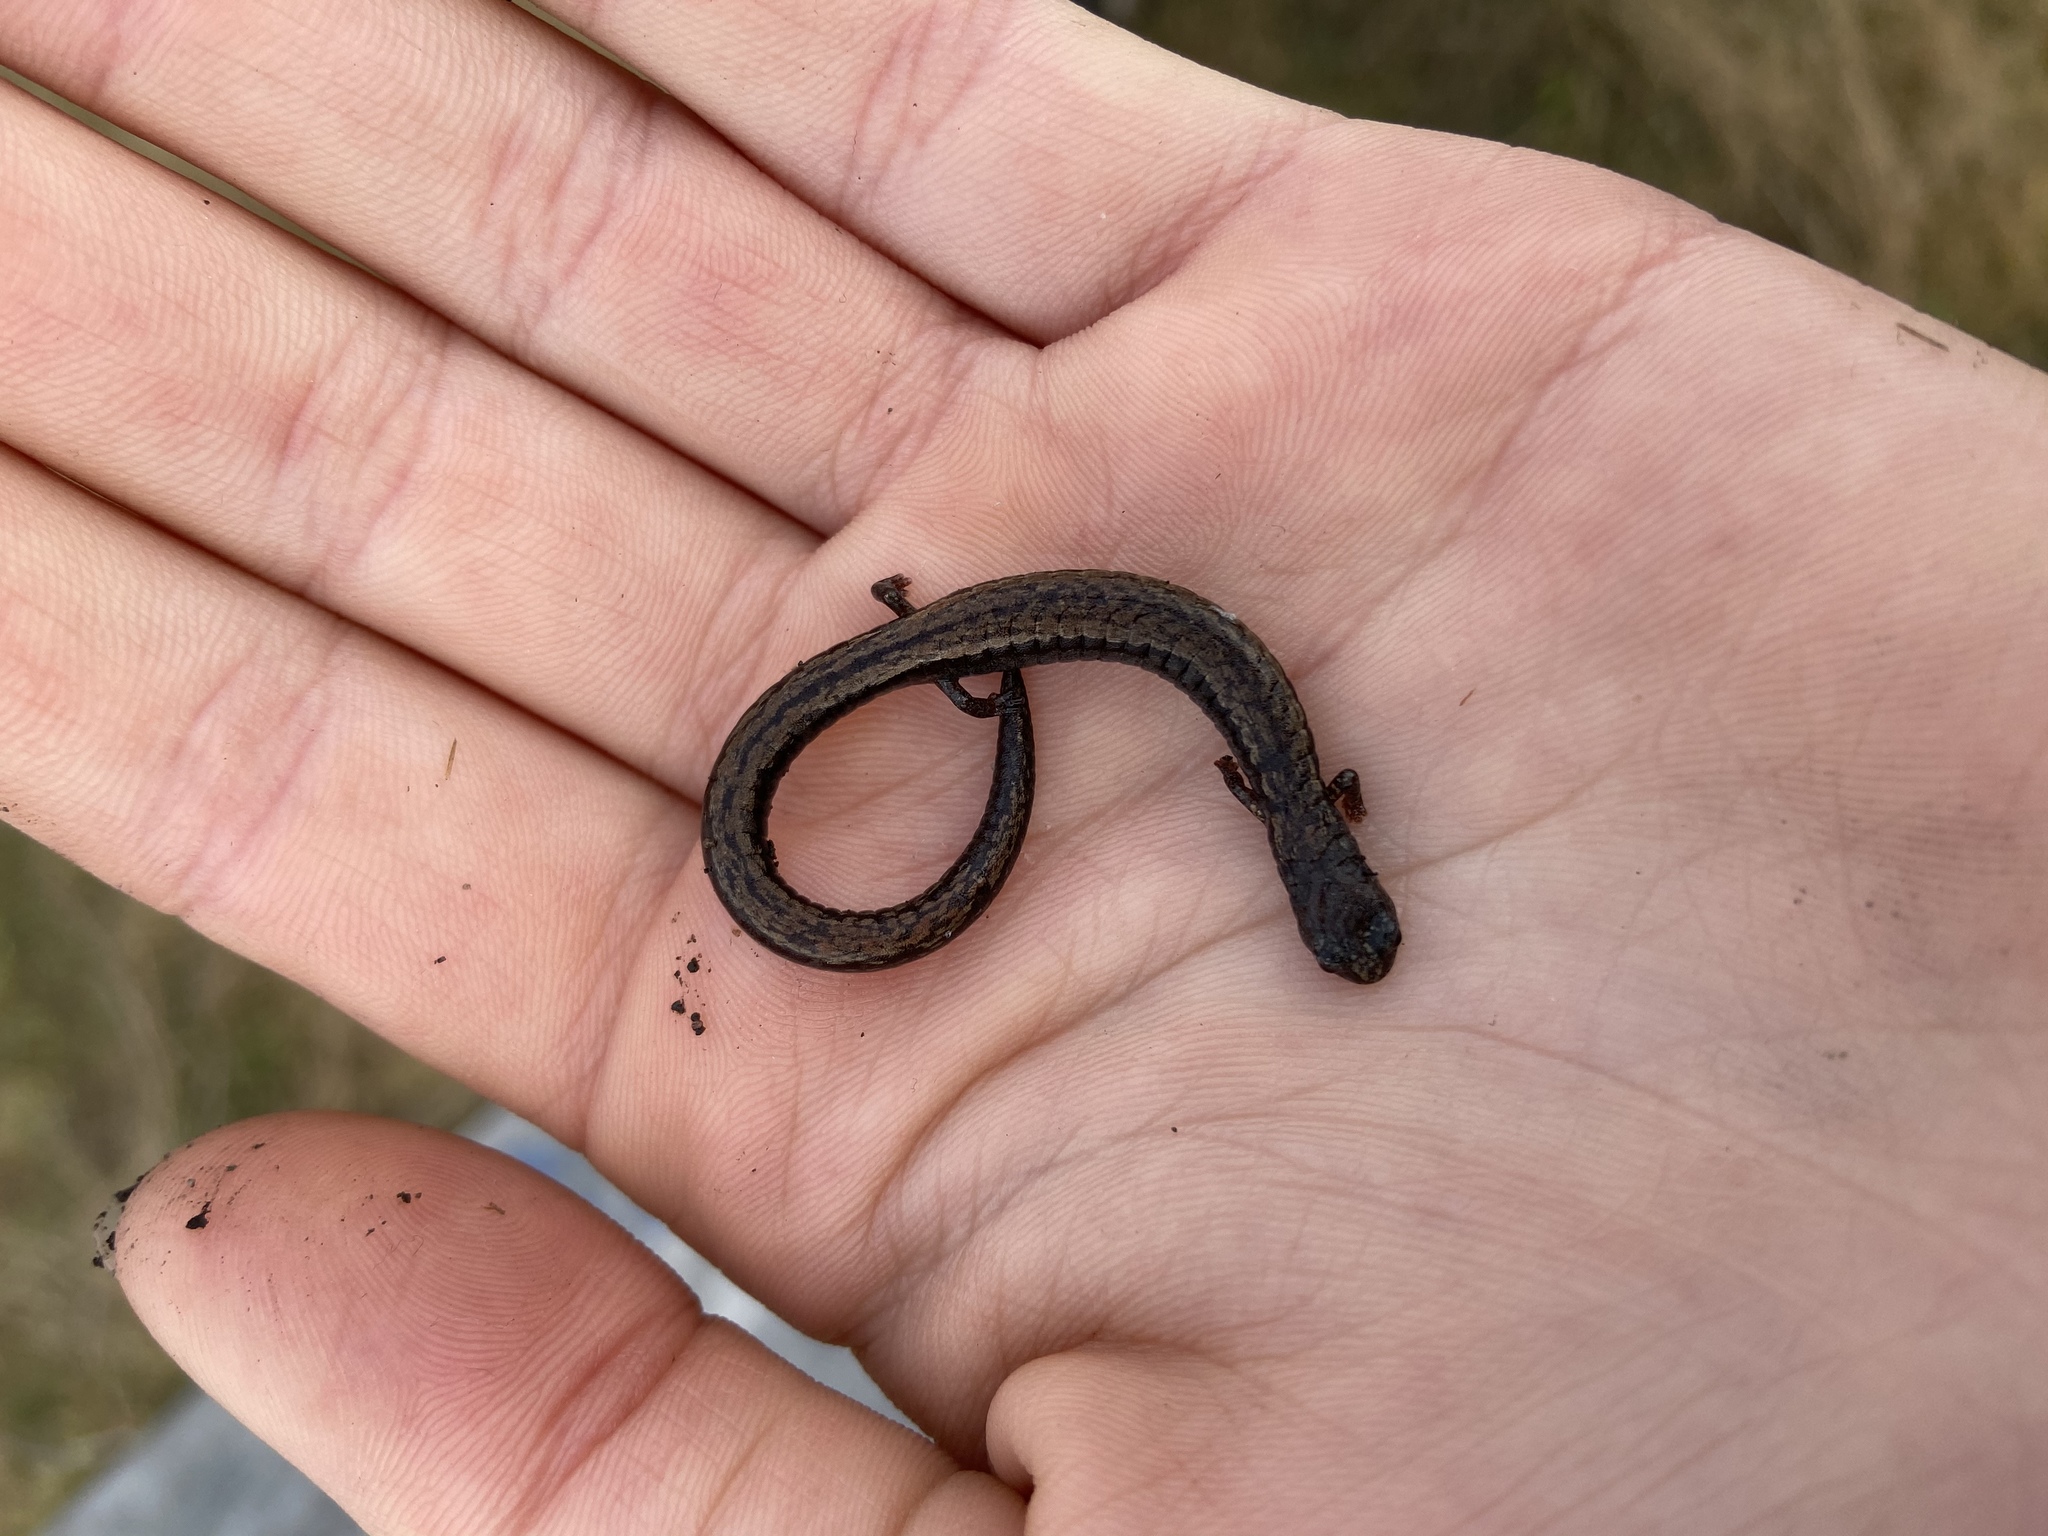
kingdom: Animalia
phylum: Chordata
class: Amphibia
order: Caudata
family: Plethodontidae
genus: Batrachoseps
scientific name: Batrachoseps attenuatus
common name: California slender salamander
